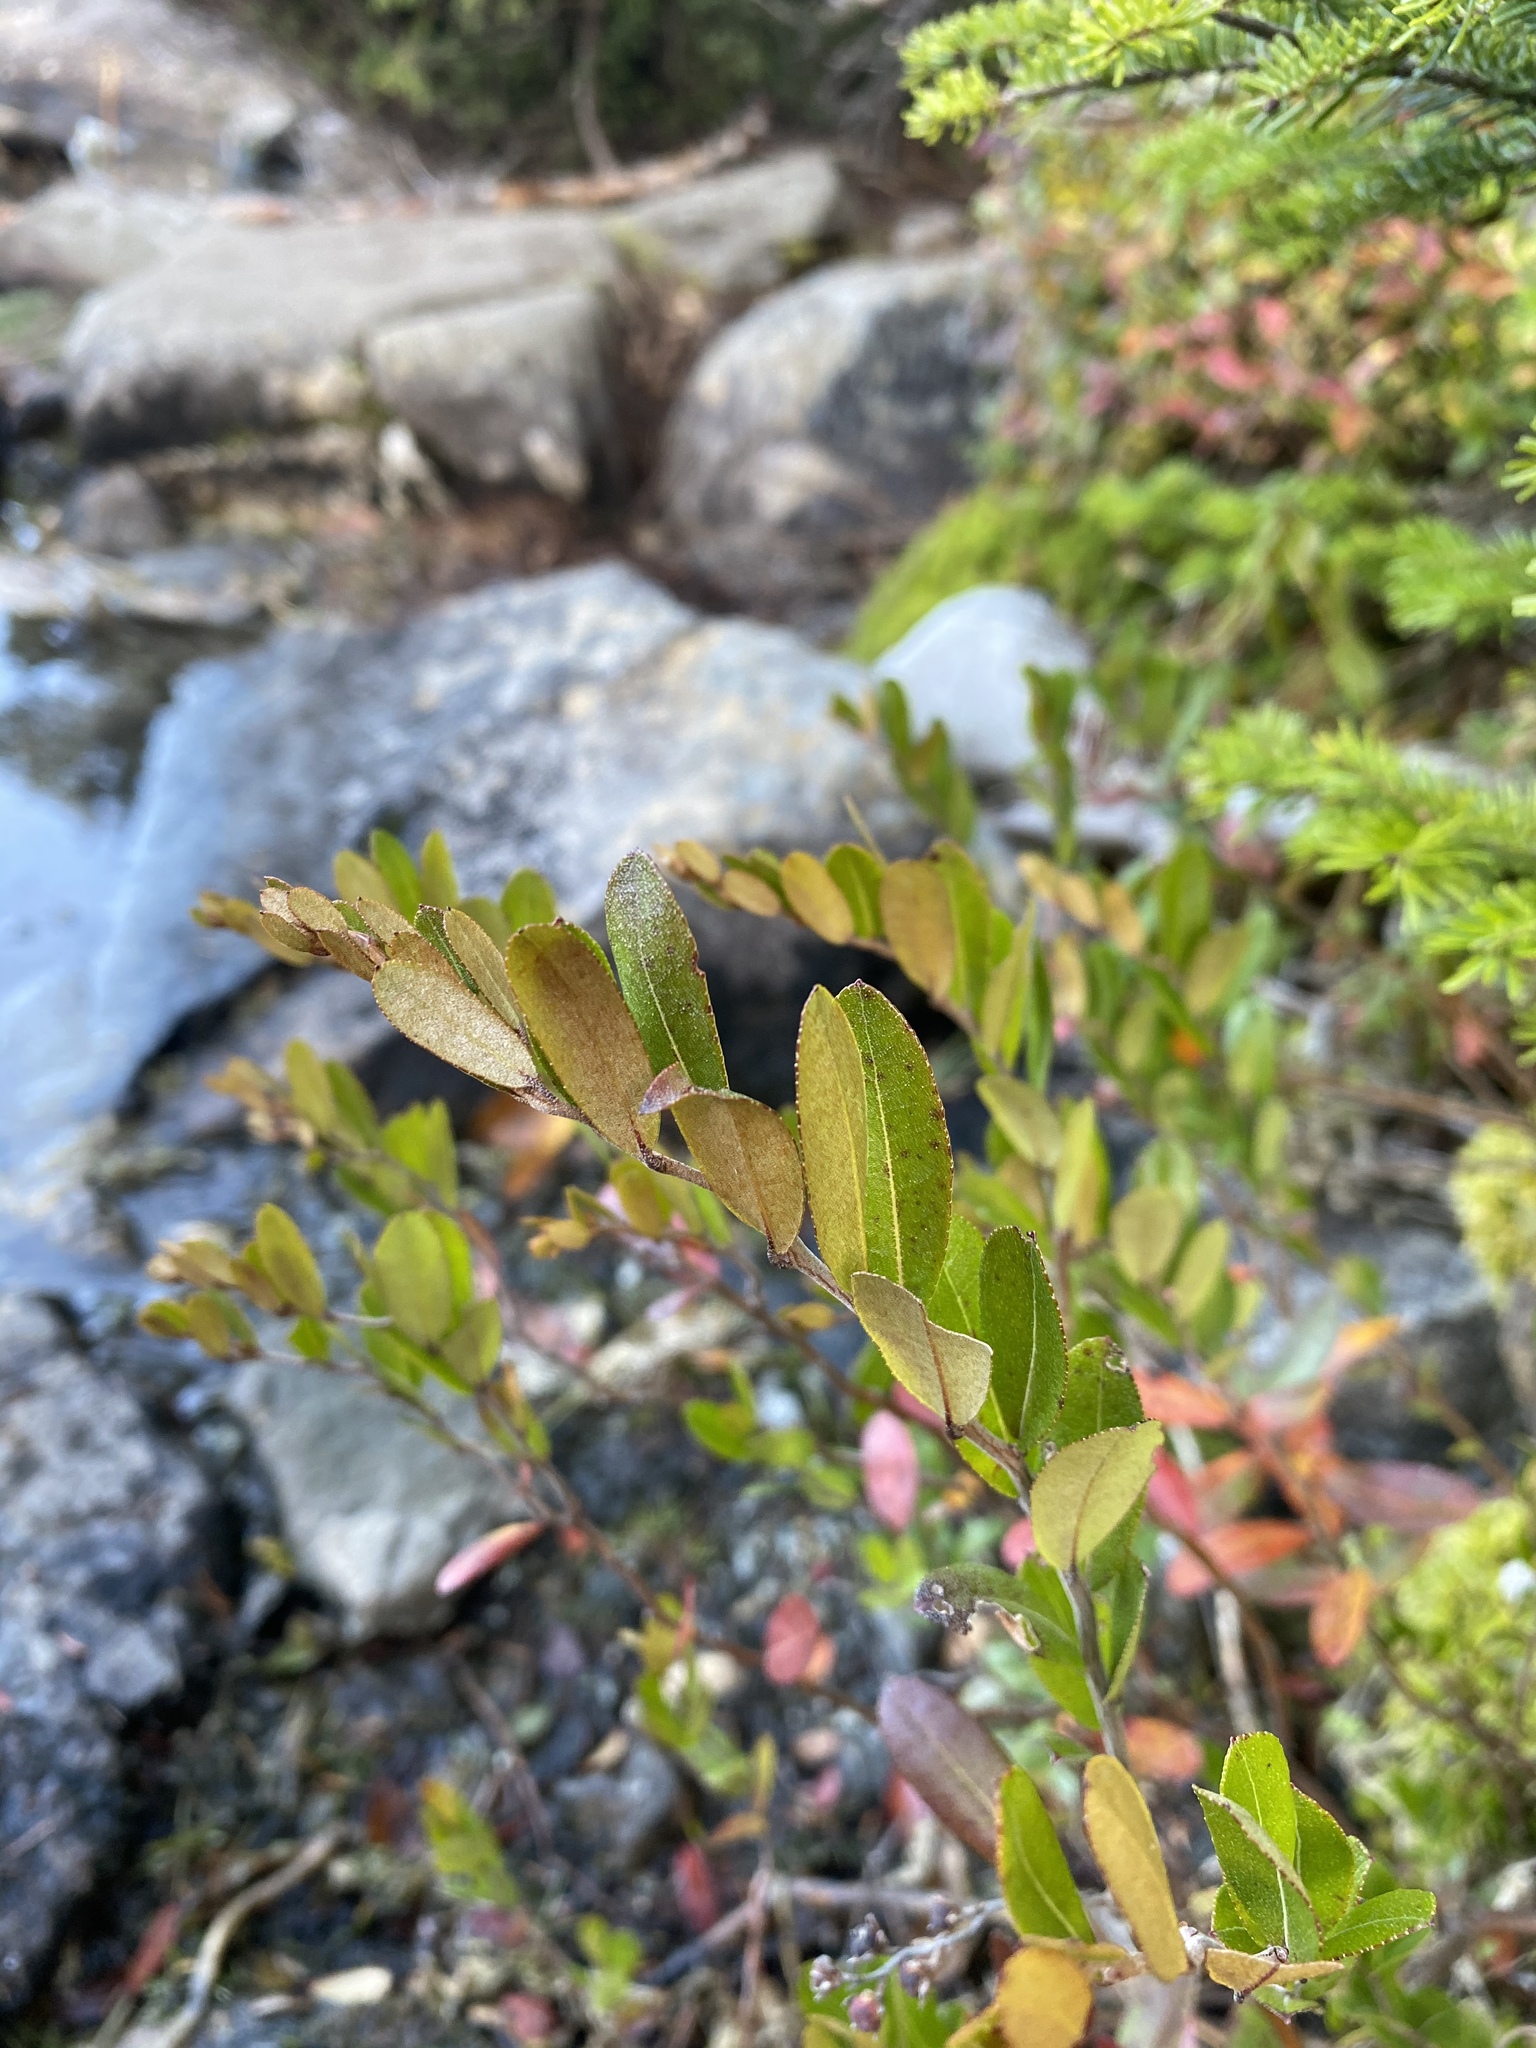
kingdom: Plantae
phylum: Tracheophyta
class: Magnoliopsida
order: Ericales
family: Ericaceae
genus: Chamaedaphne
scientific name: Chamaedaphne calyculata
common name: Leatherleaf
